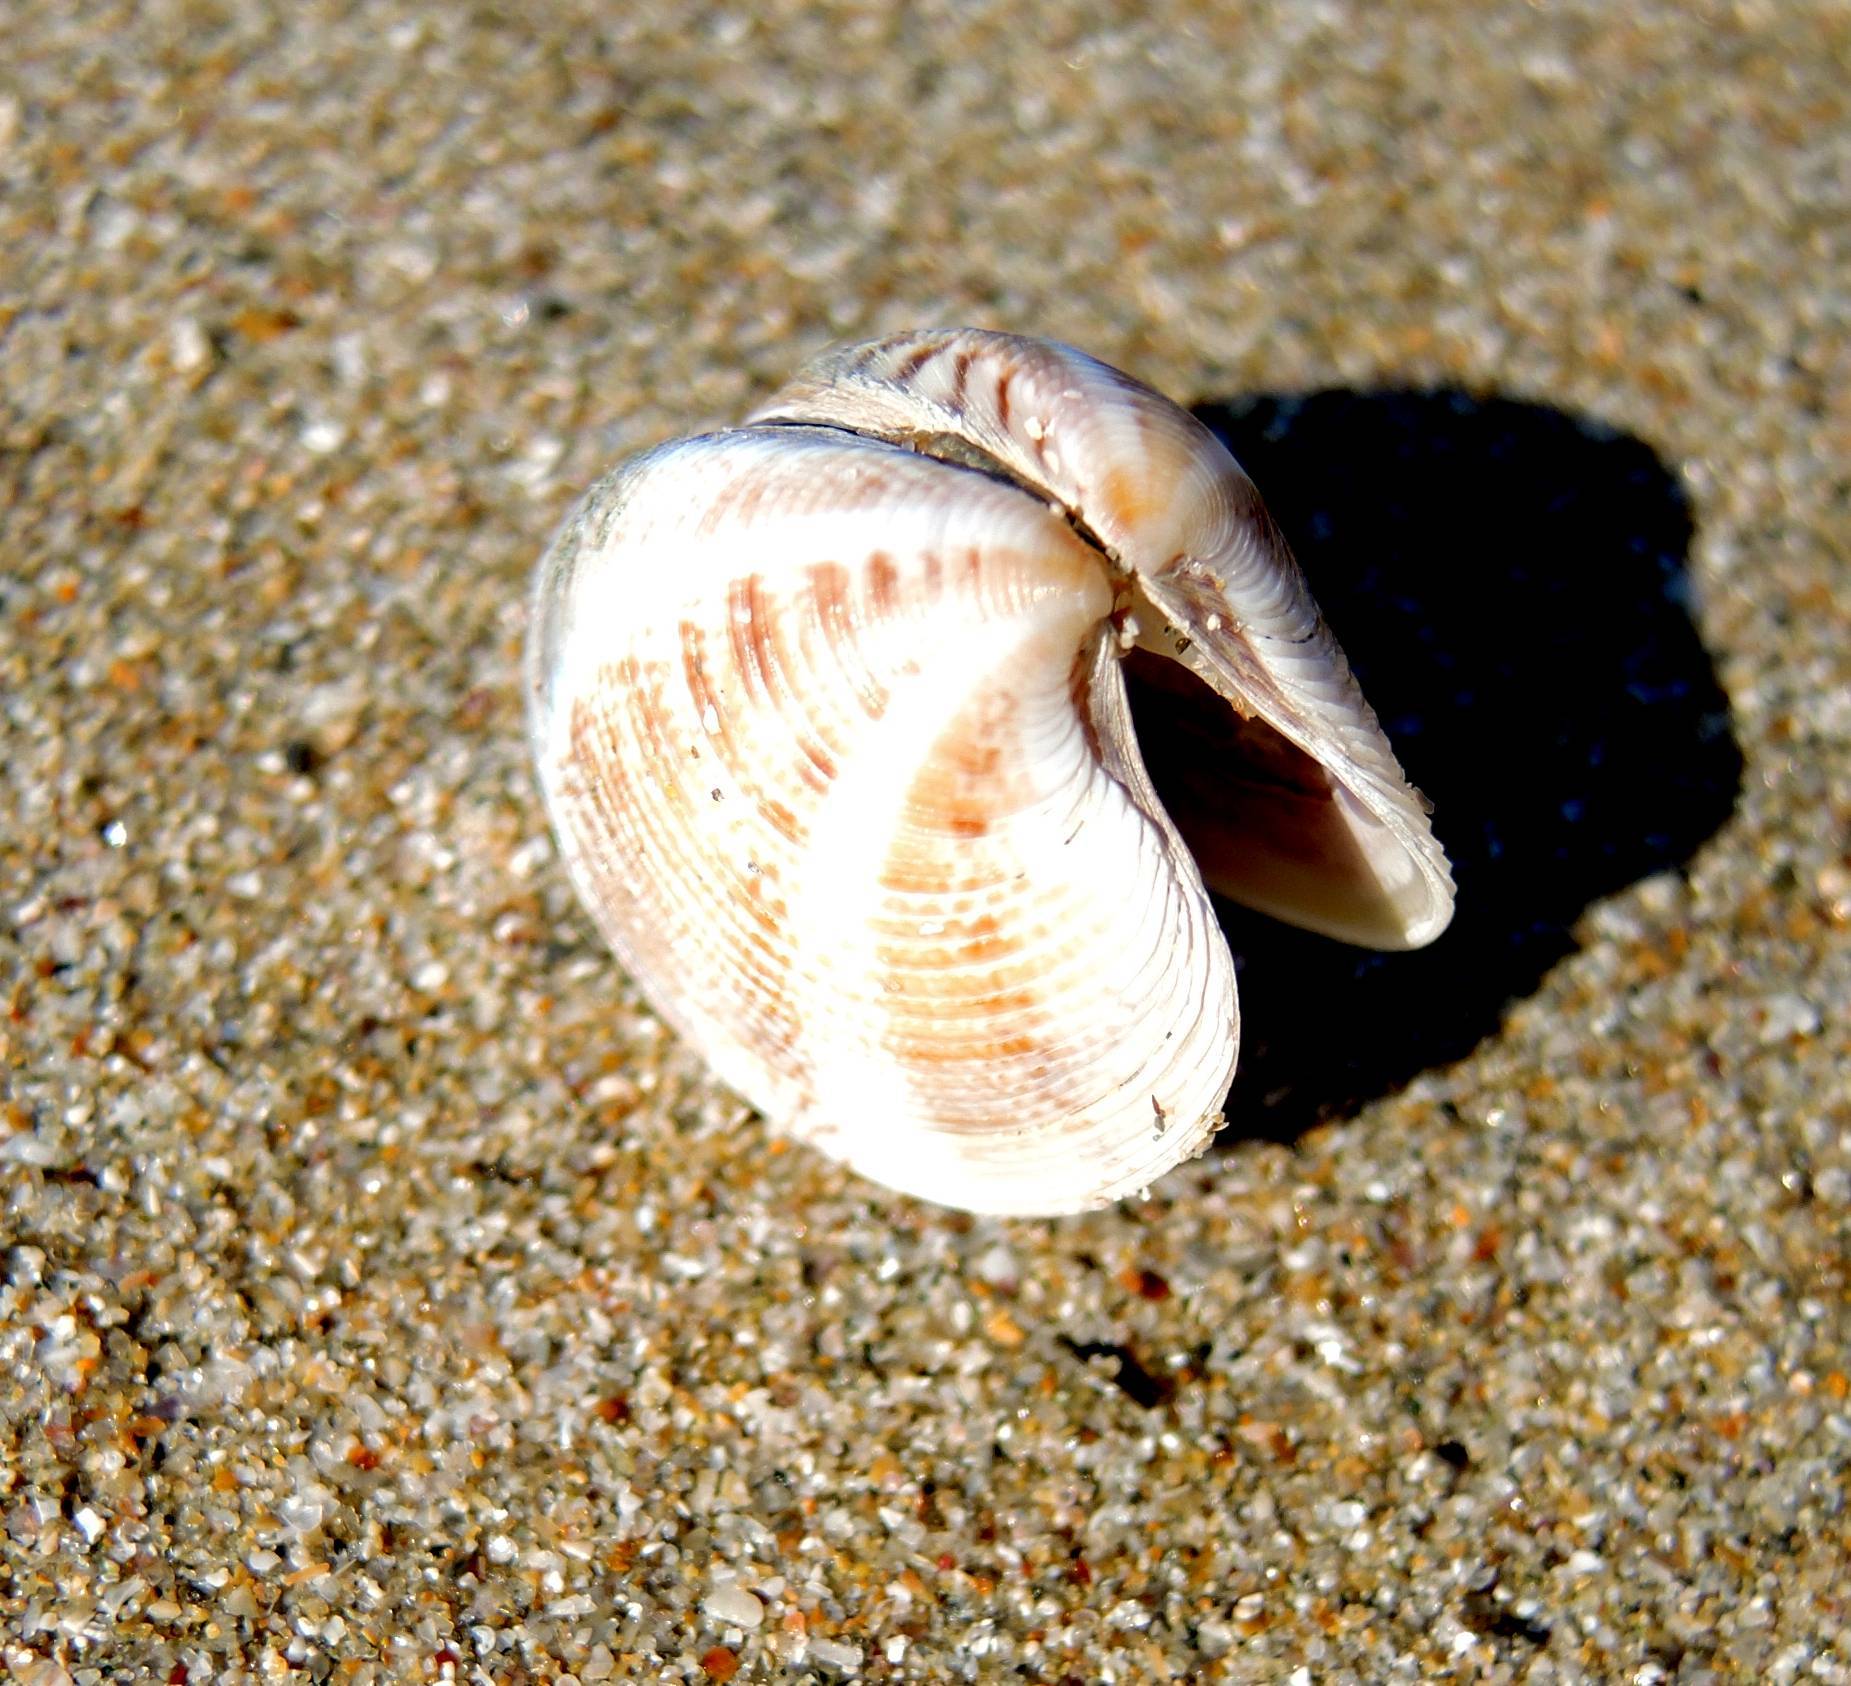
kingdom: Animalia
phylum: Mollusca
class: Bivalvia
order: Venerida
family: Veneridae
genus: Chamelea
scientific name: Chamelea gallina
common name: Chicken venus
